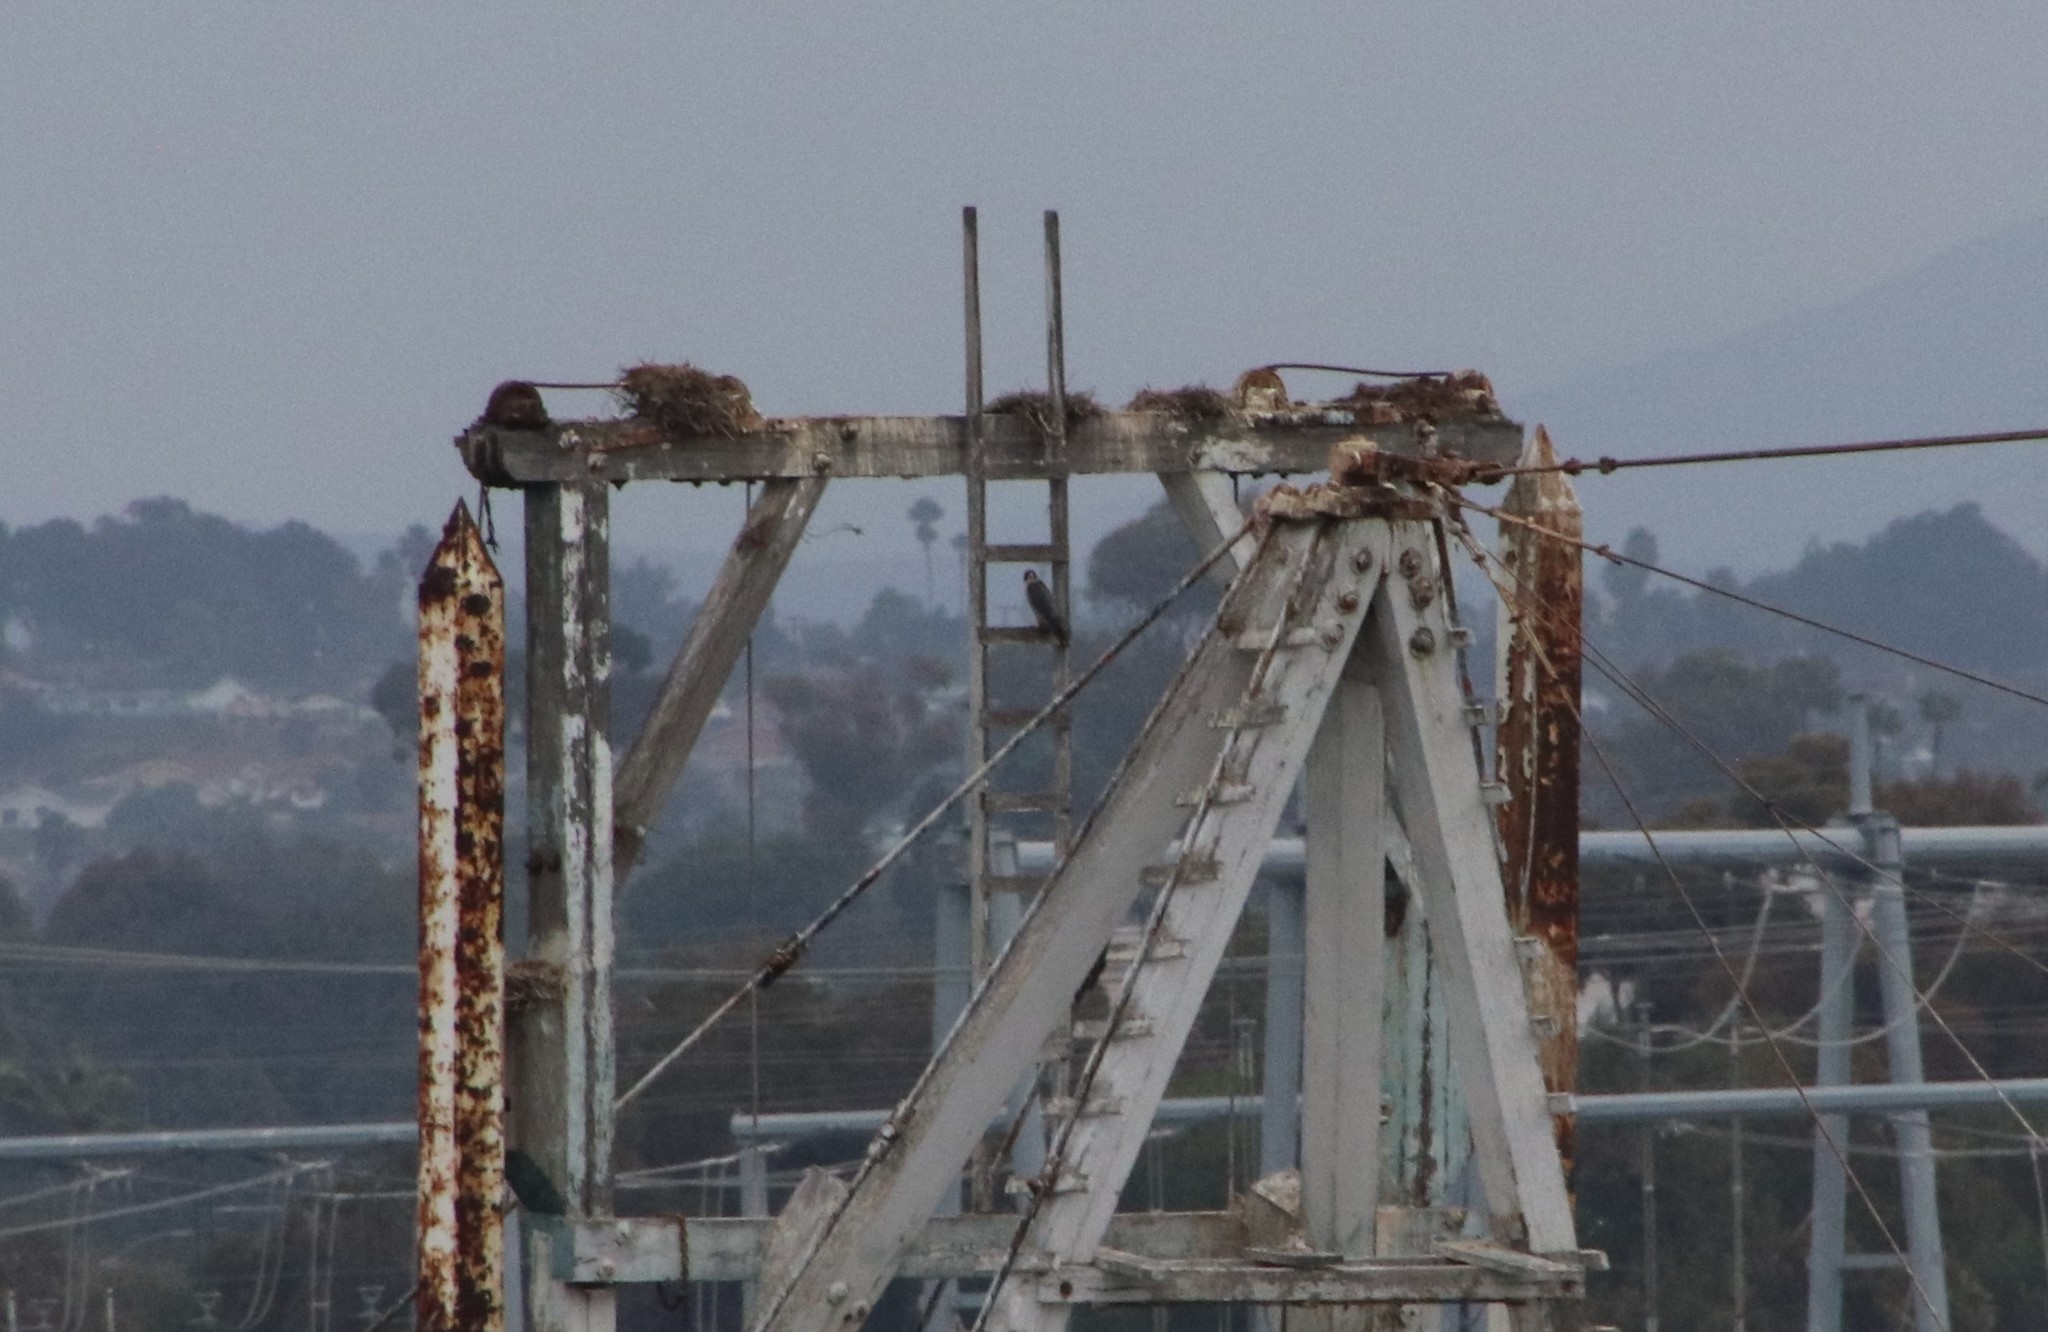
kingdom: Animalia
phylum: Chordata
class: Aves
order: Falconiformes
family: Falconidae
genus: Falco
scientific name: Falco peregrinus
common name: Peregrine falcon
